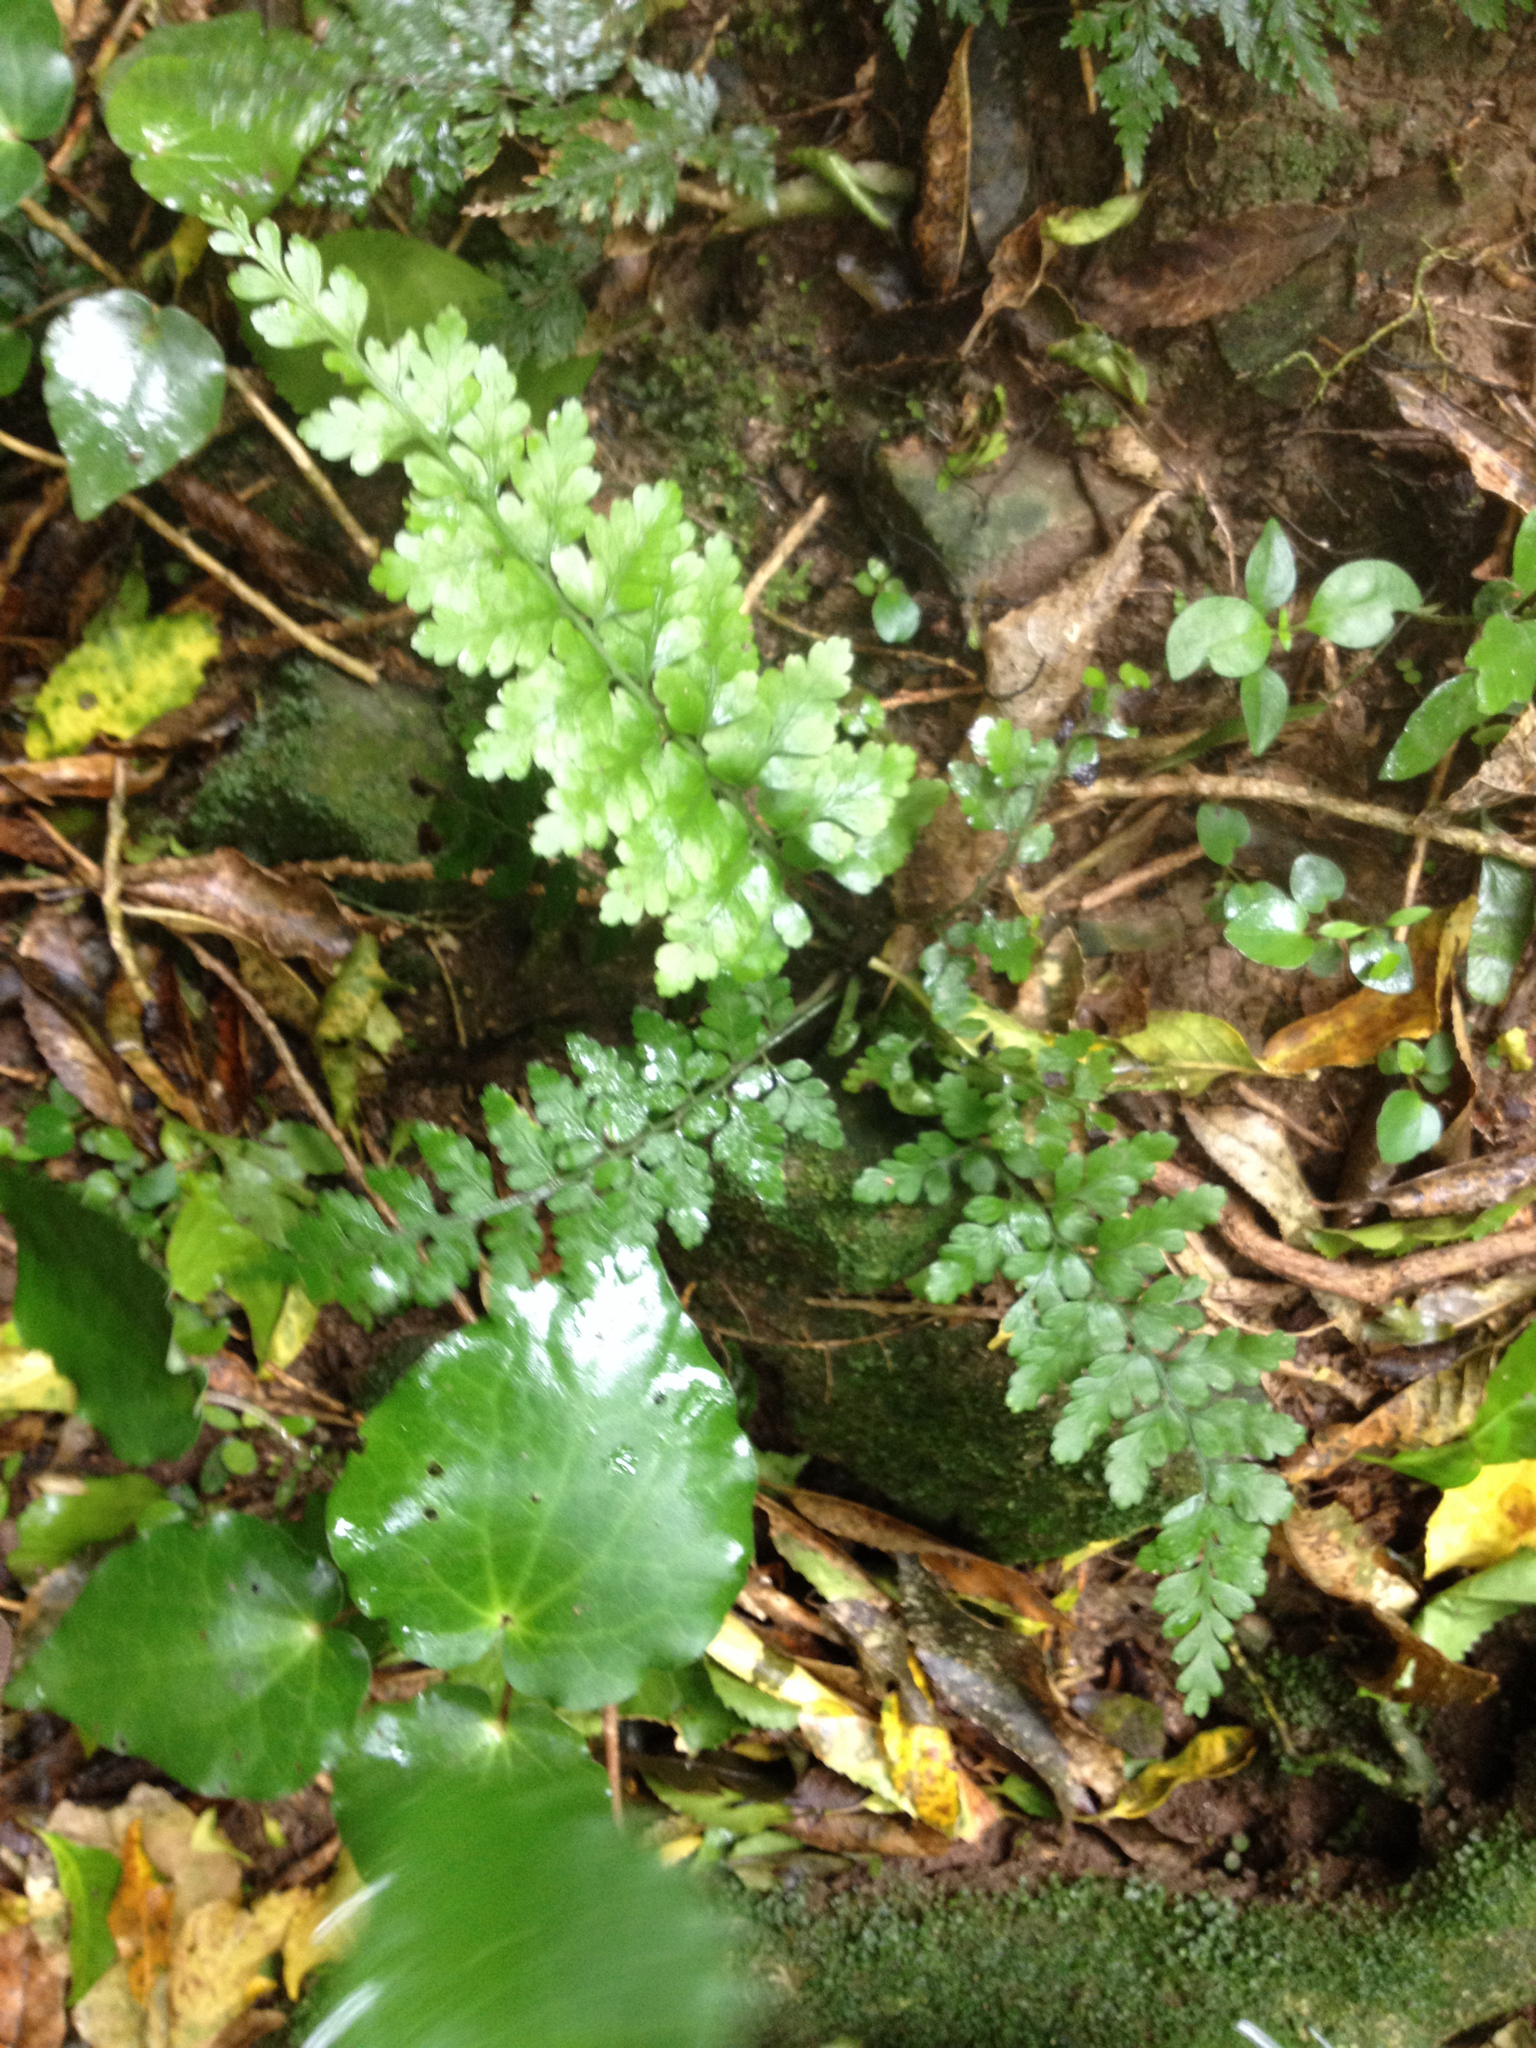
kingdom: Plantae
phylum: Tracheophyta
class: Polypodiopsida
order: Polypodiales
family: Aspleniaceae
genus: Asplenium
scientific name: Asplenium
